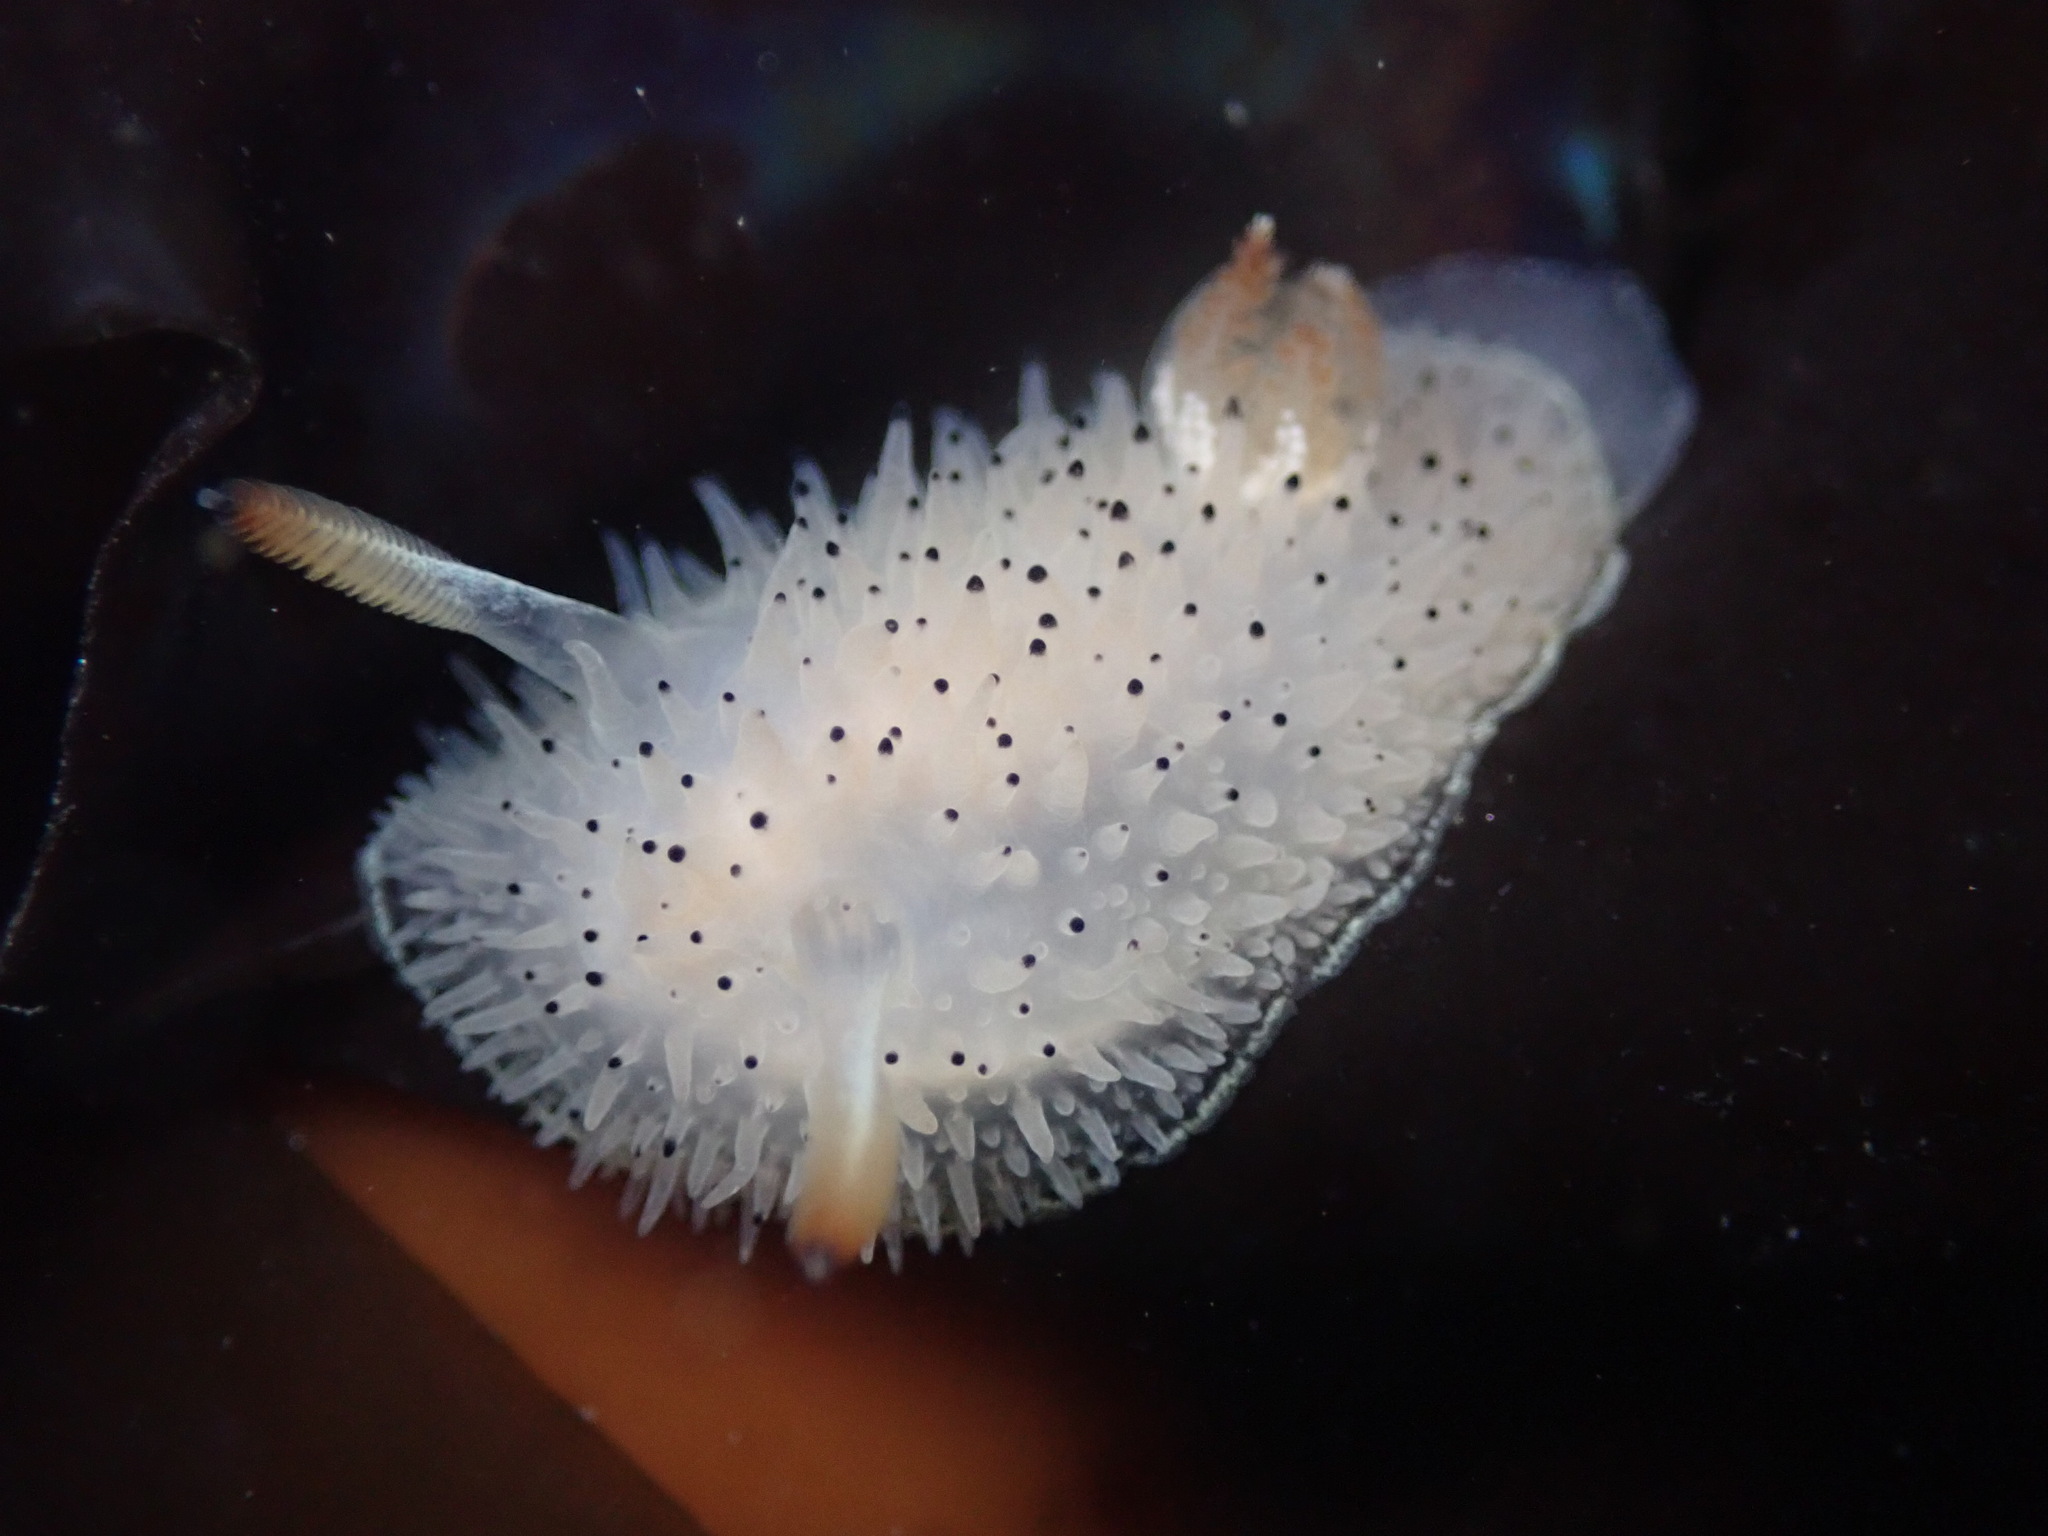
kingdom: Animalia
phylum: Mollusca
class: Gastropoda
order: Nudibranchia
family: Onchidorididae
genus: Acanthodoris
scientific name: Acanthodoris rhodoceras
